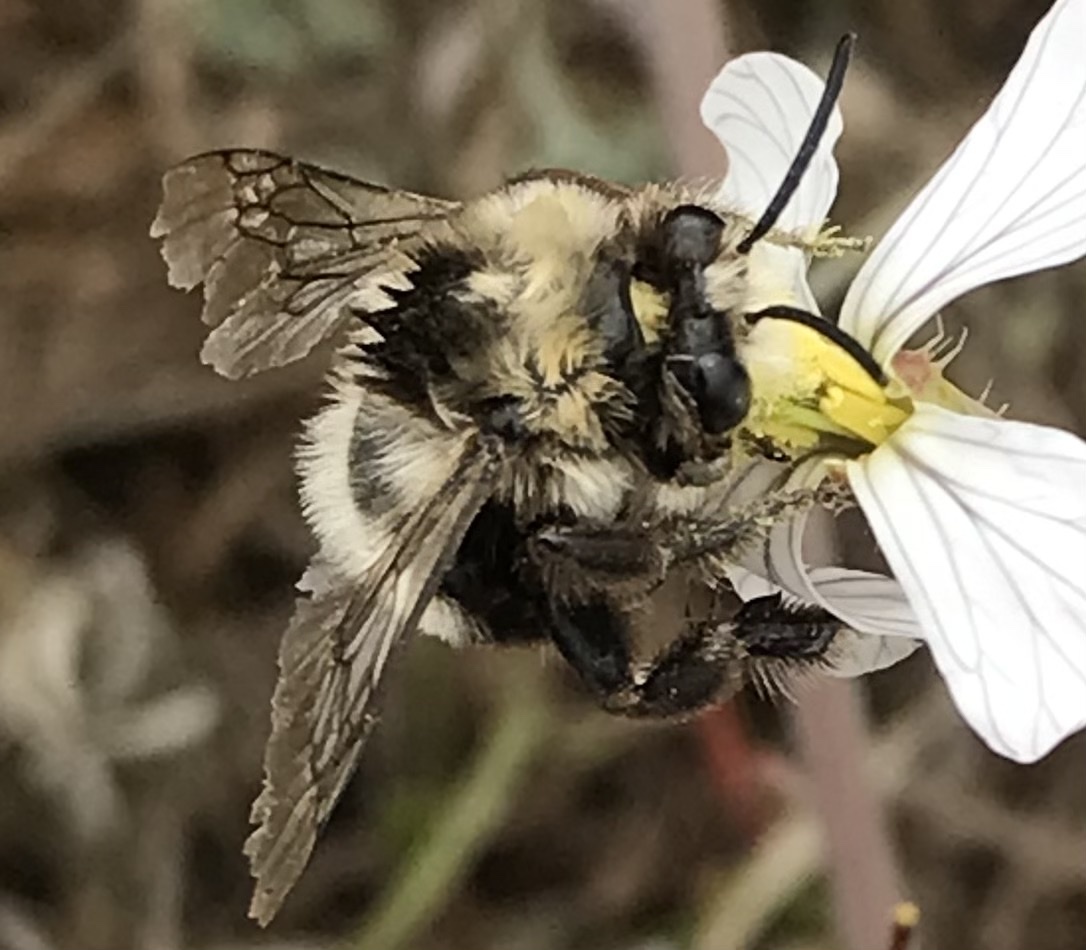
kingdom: Animalia
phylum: Arthropoda
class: Insecta
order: Hymenoptera
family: Apidae
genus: Anthophora
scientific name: Anthophora bomboides
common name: Bumble-bee-mimic digger bee
